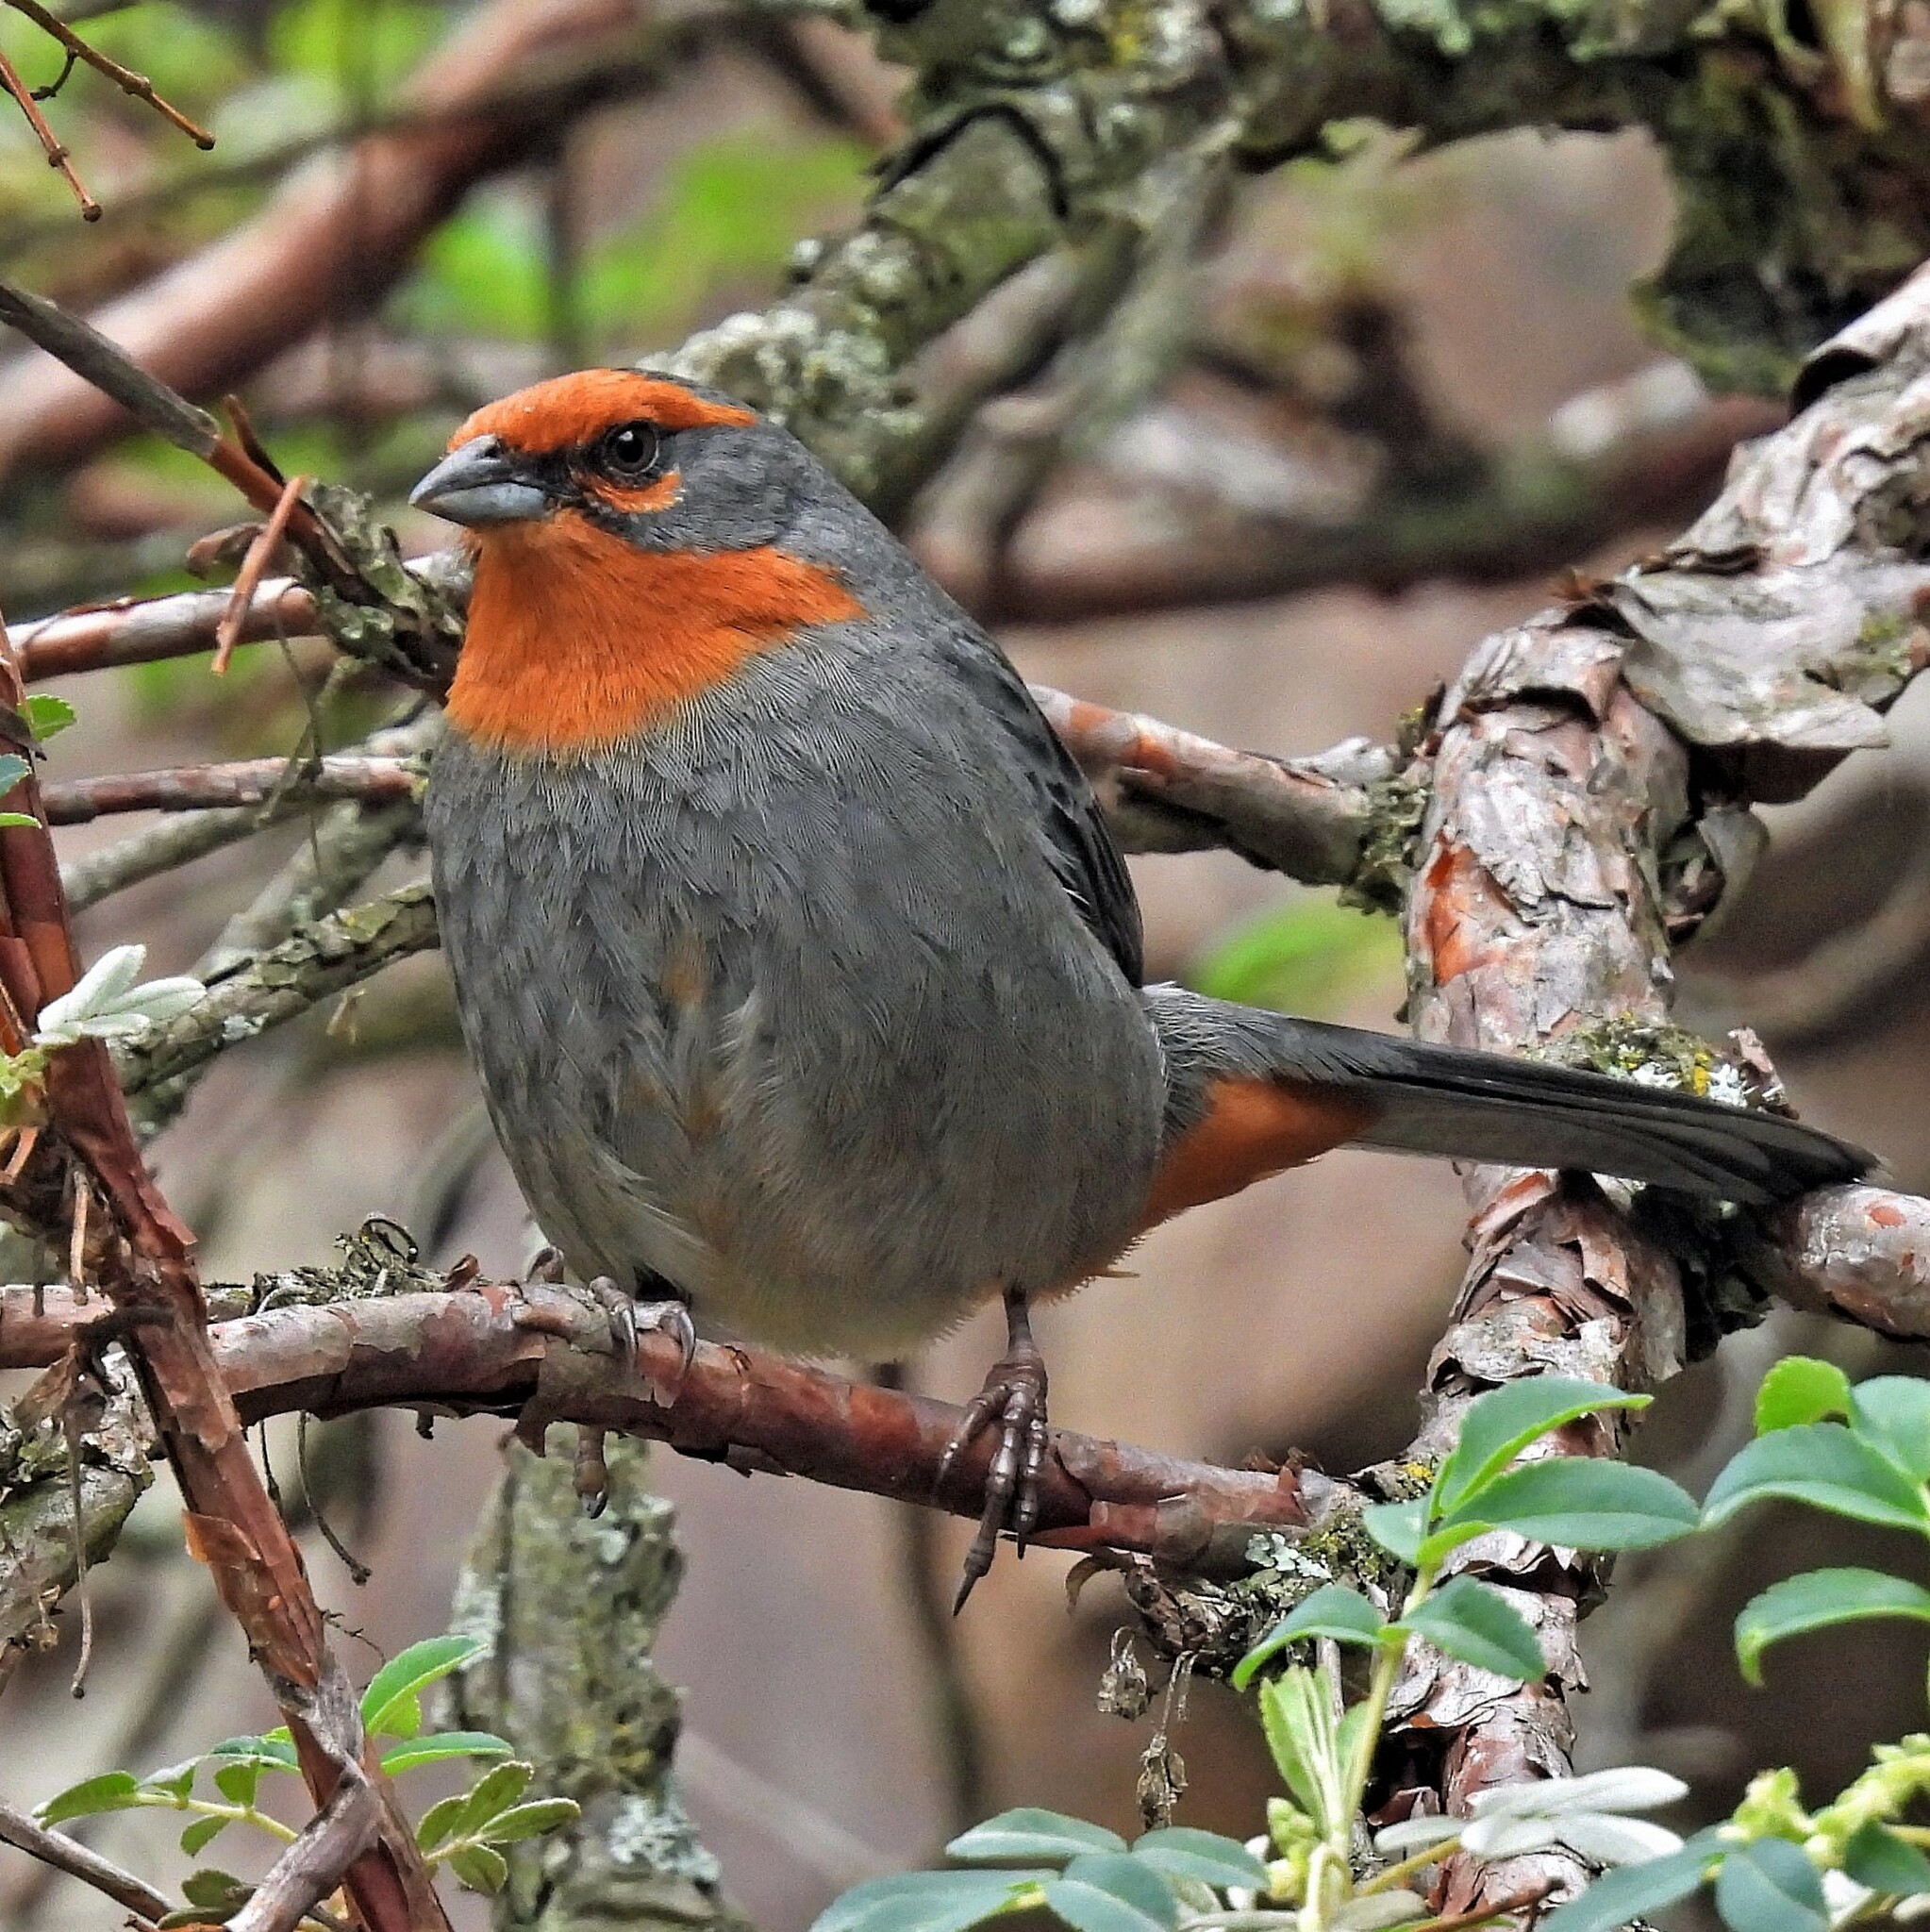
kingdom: Animalia
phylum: Chordata
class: Aves
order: Passeriformes
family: Thraupidae
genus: Poospiza
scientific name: Poospiza baeri
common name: Tucuman mountain-finch
